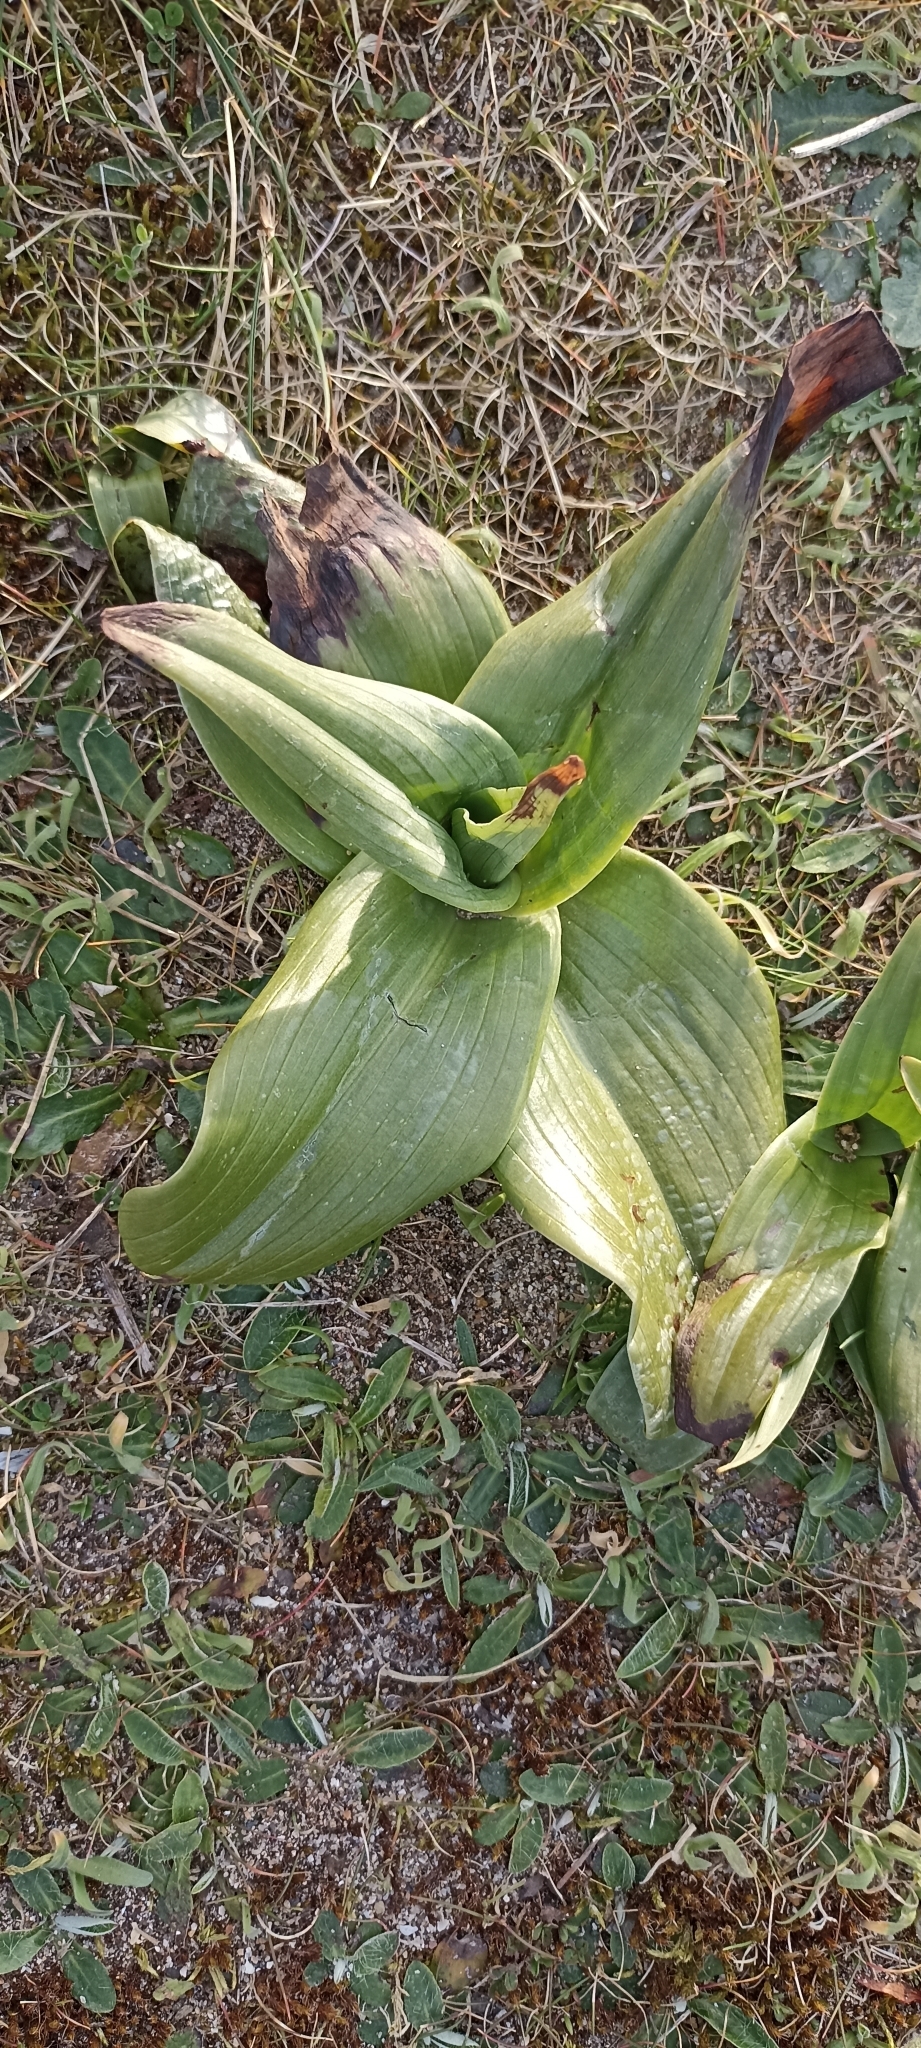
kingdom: Plantae
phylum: Tracheophyta
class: Liliopsida
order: Asparagales
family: Orchidaceae
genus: Himantoglossum
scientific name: Himantoglossum robertianum
